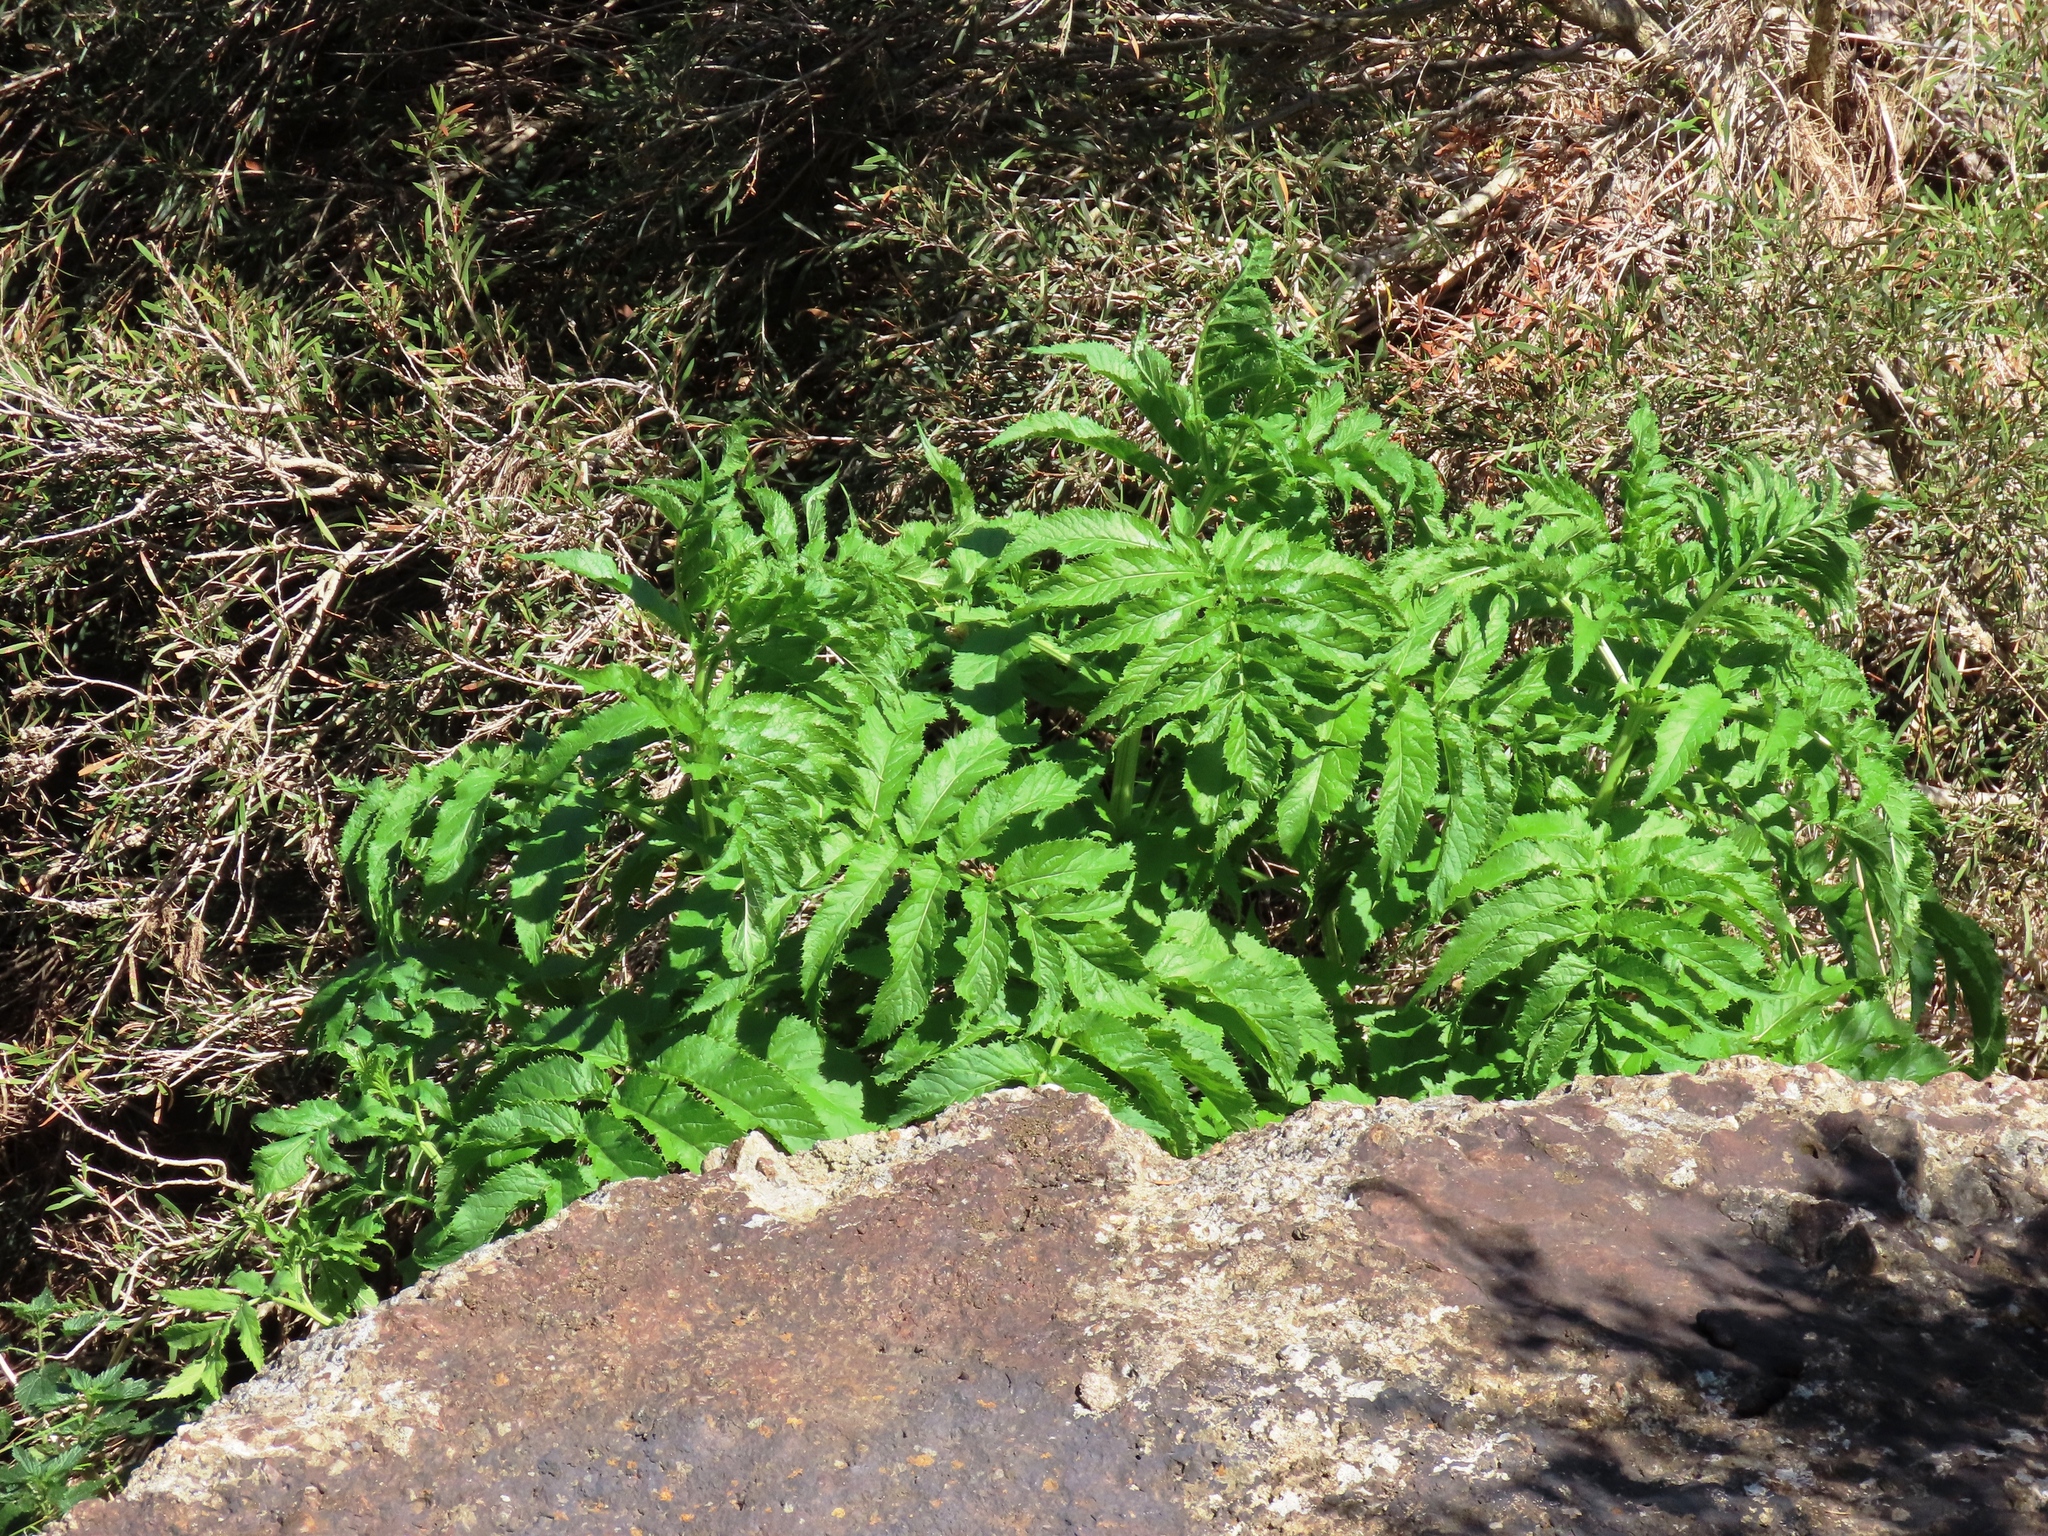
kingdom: Plantae
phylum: Tracheophyta
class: Magnoliopsida
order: Dipsacales
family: Viburnaceae
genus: Sambucus
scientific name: Sambucus gaudichaudiana
